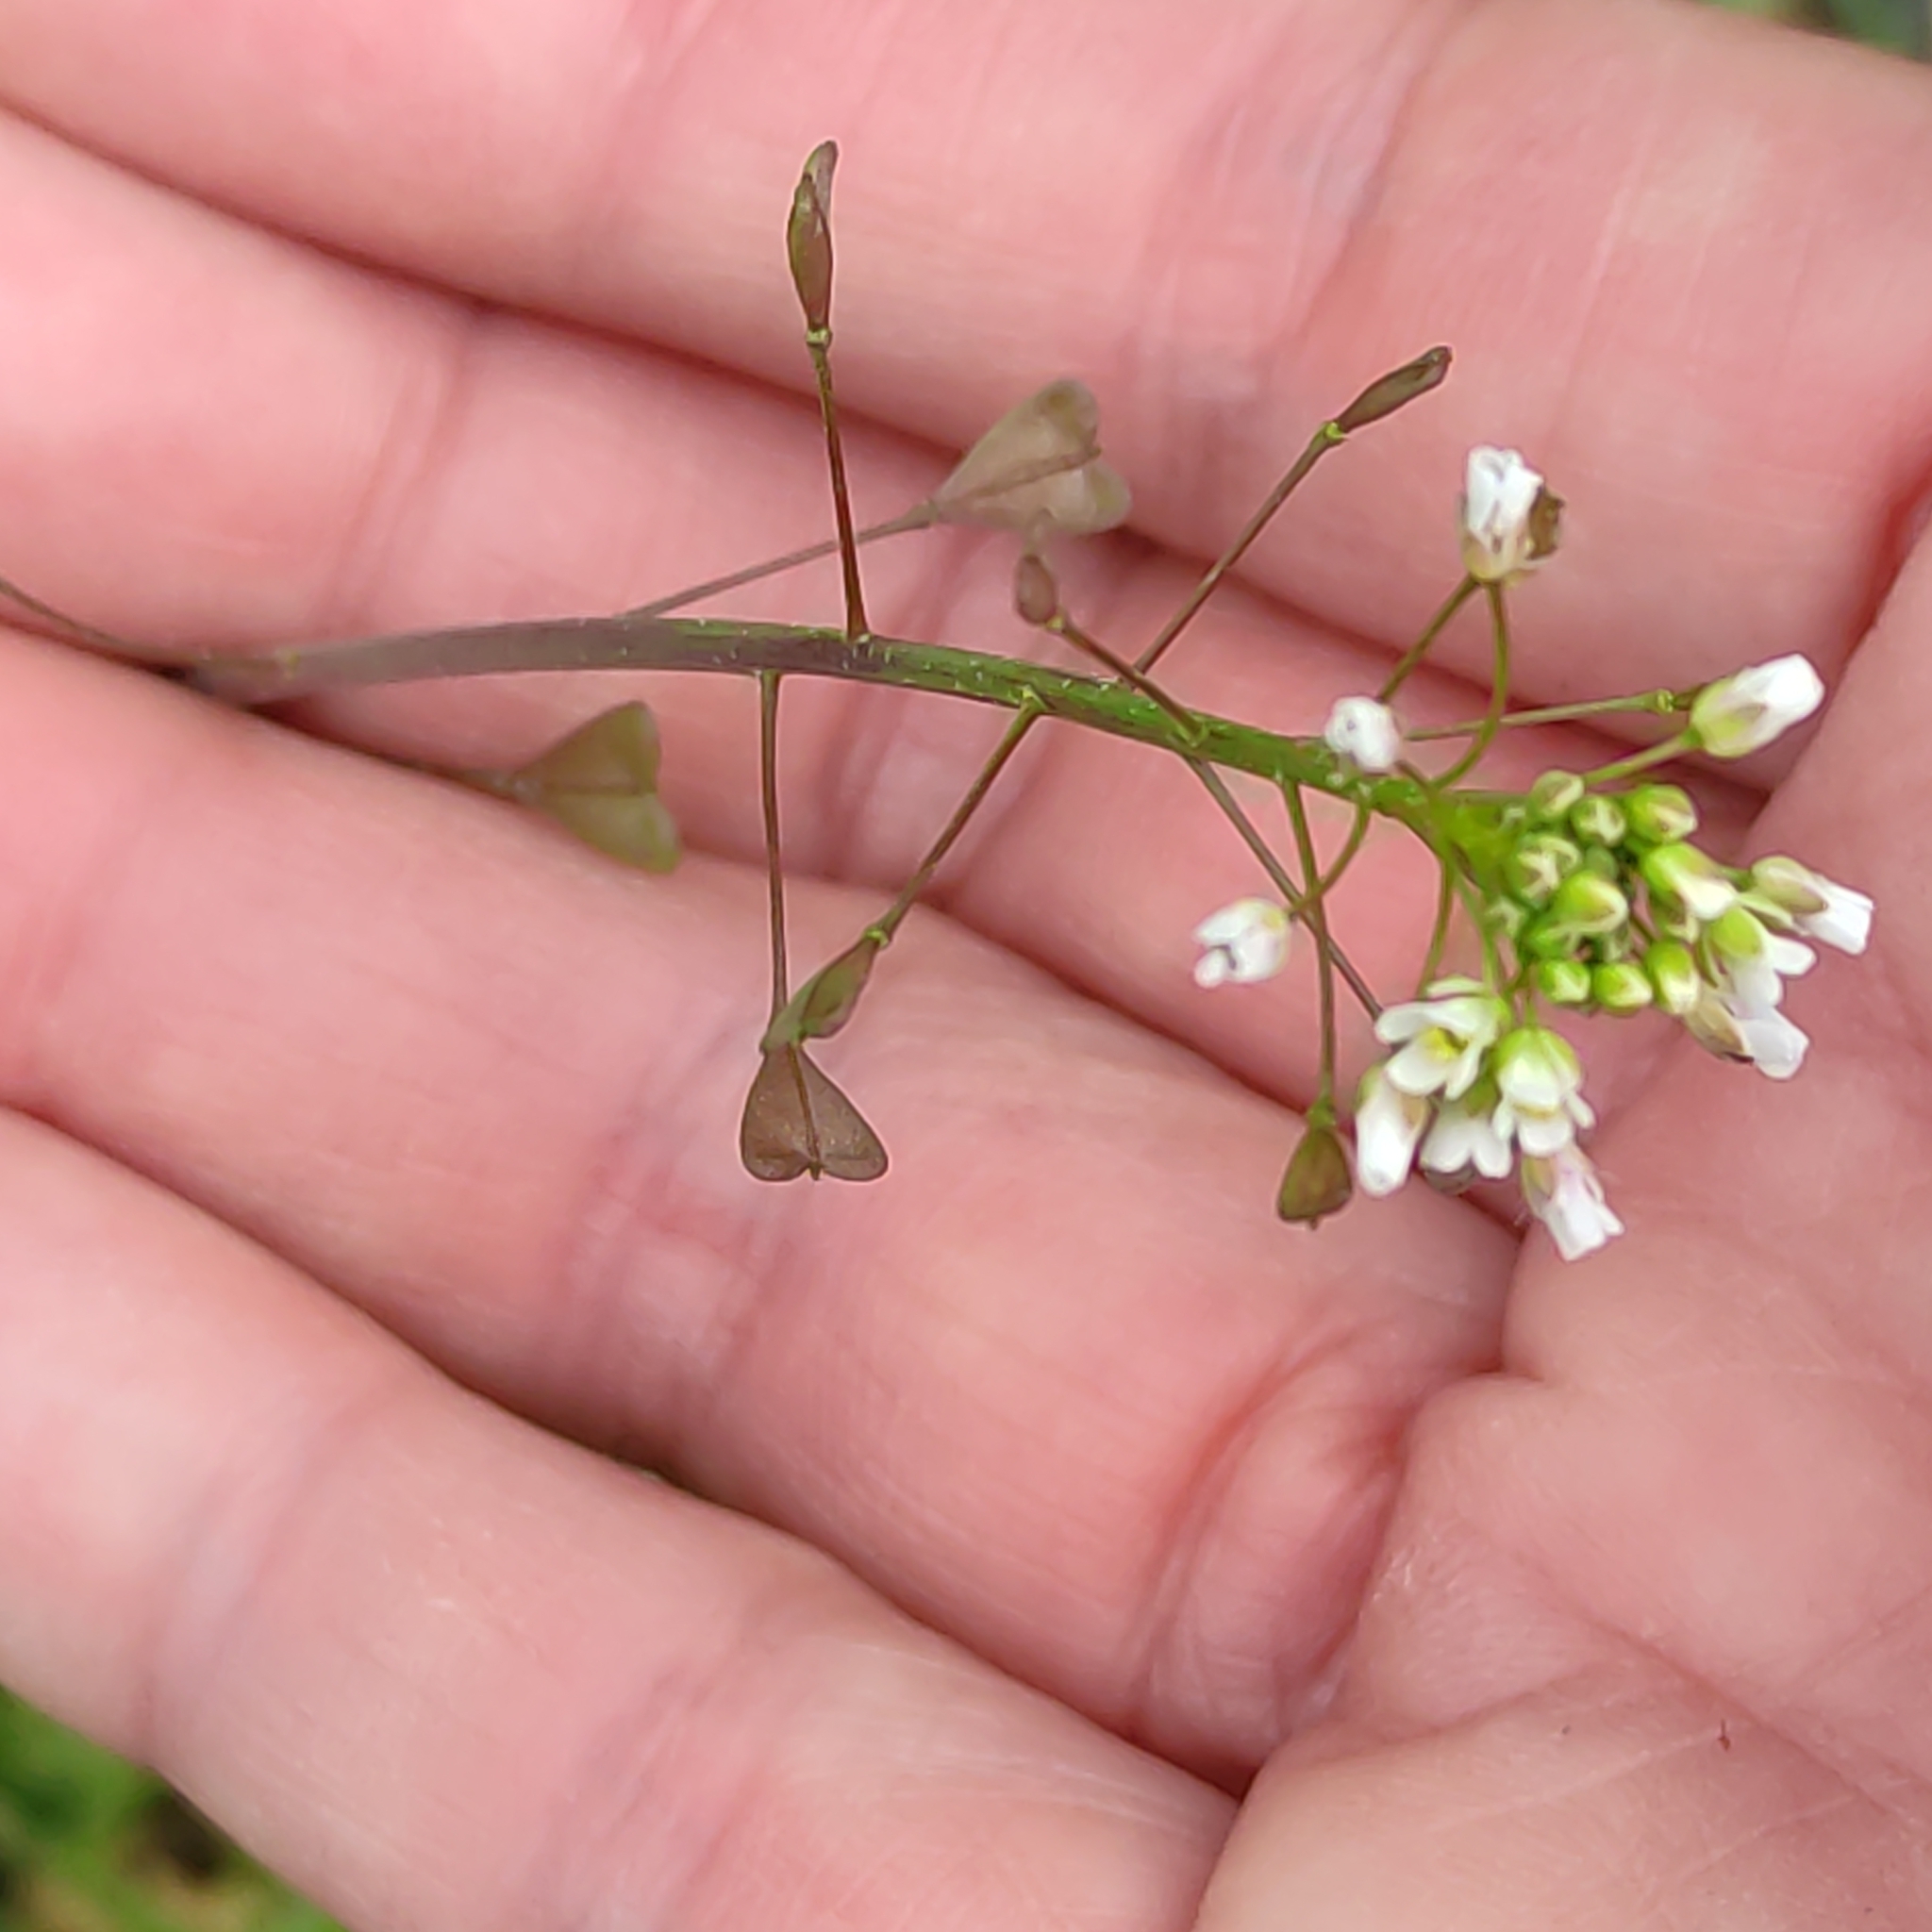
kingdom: Plantae
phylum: Tracheophyta
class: Magnoliopsida
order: Brassicales
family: Brassicaceae
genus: Capsella
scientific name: Capsella bursa-pastoris
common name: Shepherd's purse
